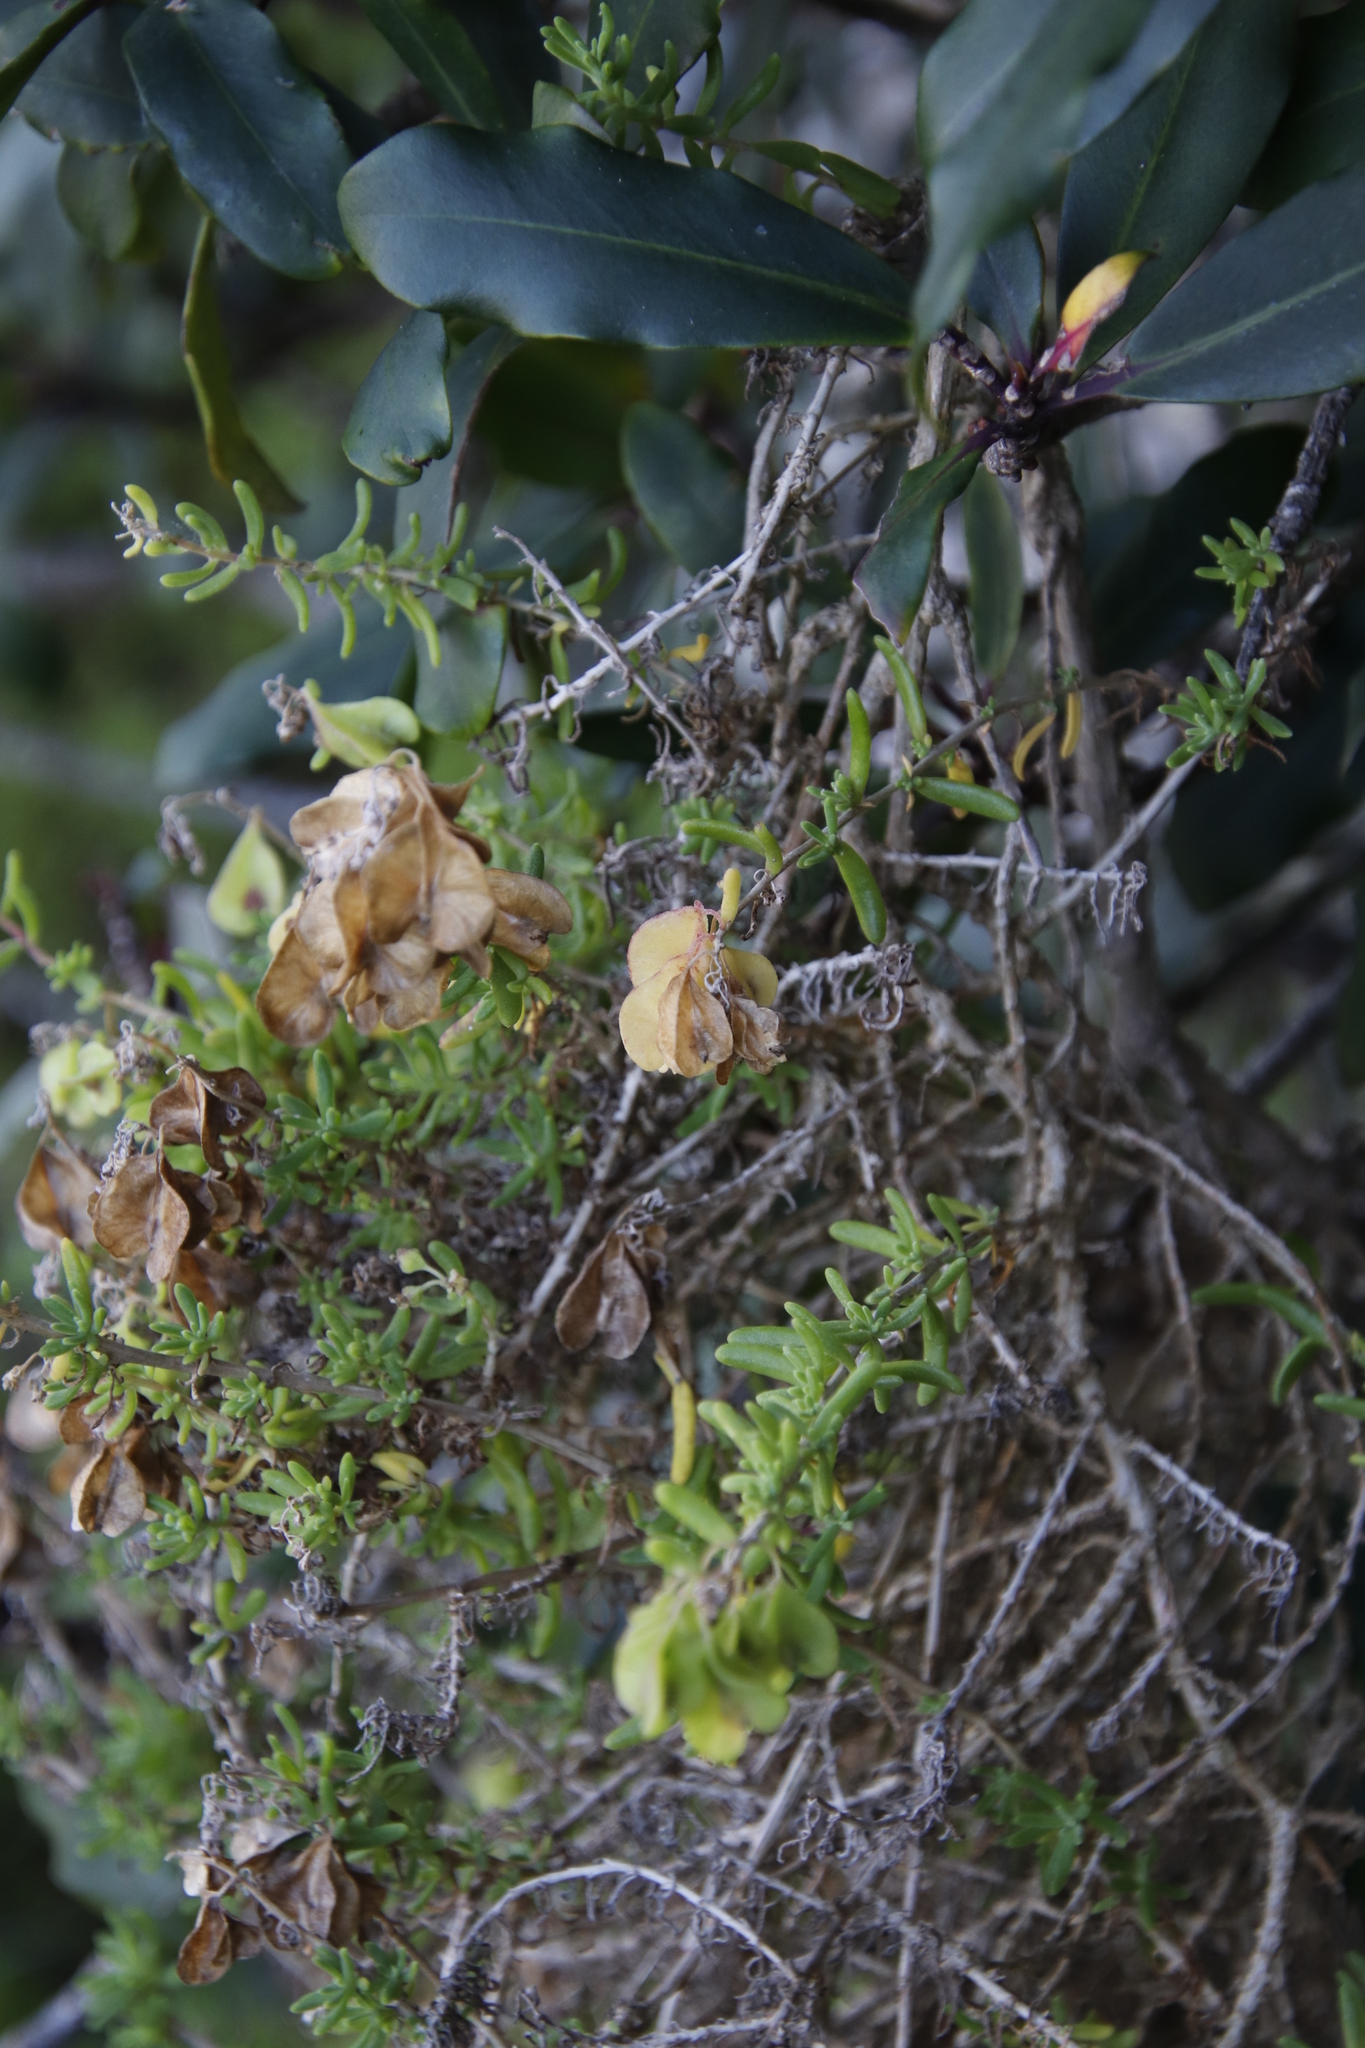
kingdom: Plantae
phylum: Tracheophyta
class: Magnoliopsida
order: Caryophyllales
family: Aizoaceae
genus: Tetragonia
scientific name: Tetragonia fruticosa
